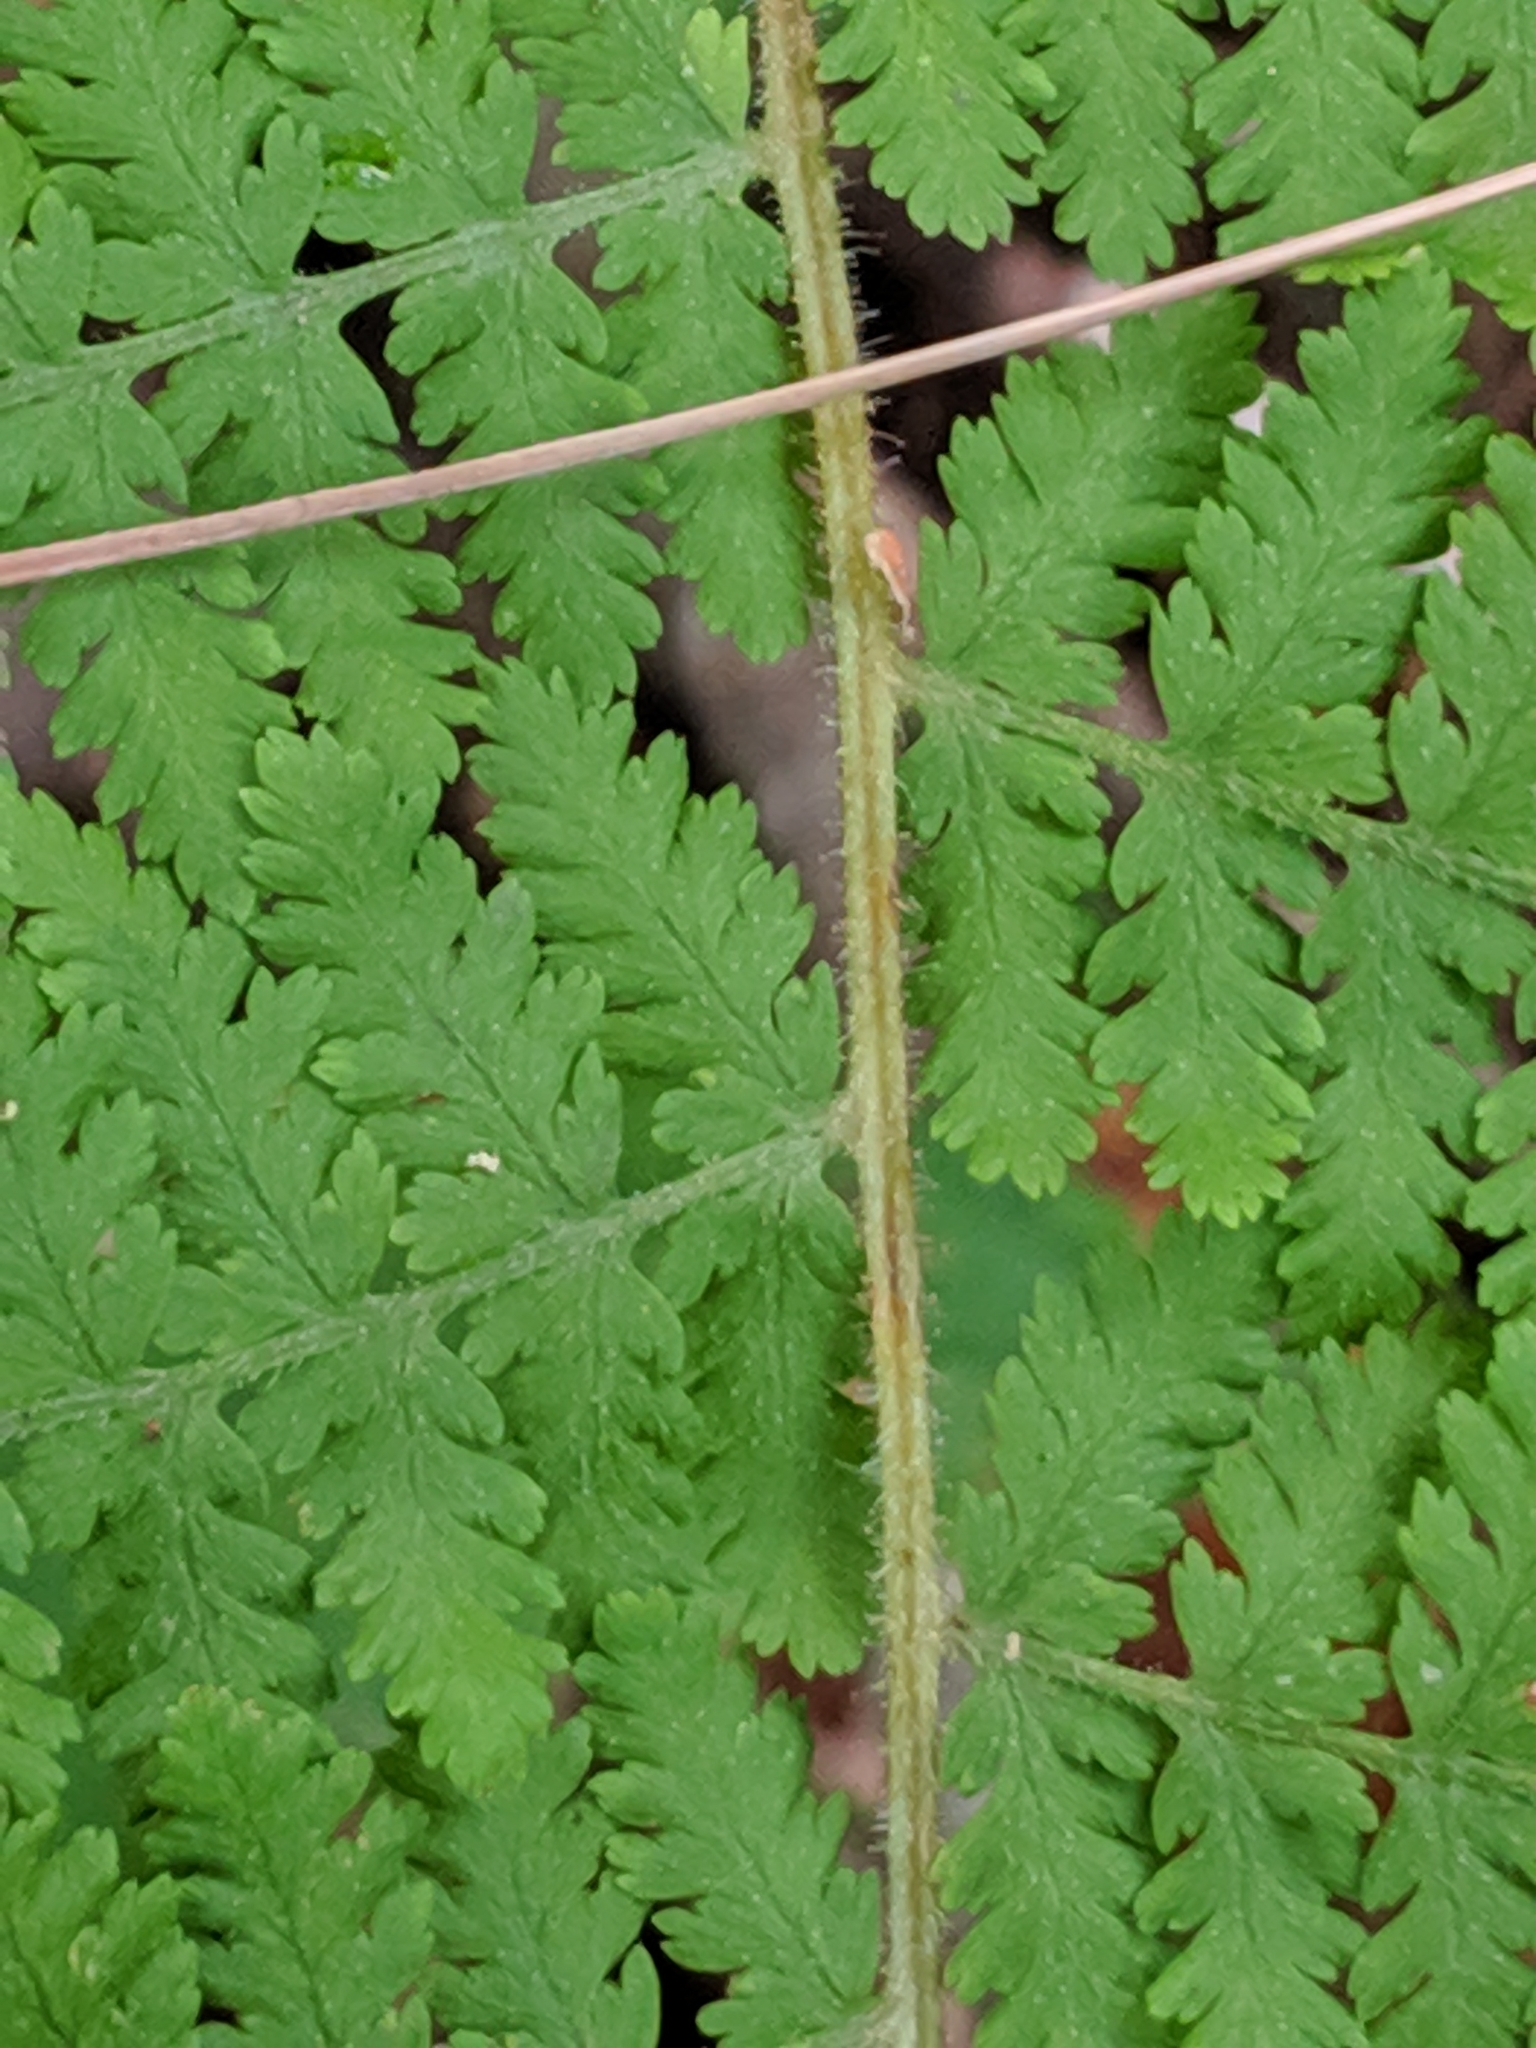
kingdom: Plantae
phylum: Tracheophyta
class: Polypodiopsida
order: Polypodiales
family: Dennstaedtiaceae
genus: Sitobolium
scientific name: Sitobolium punctilobum
